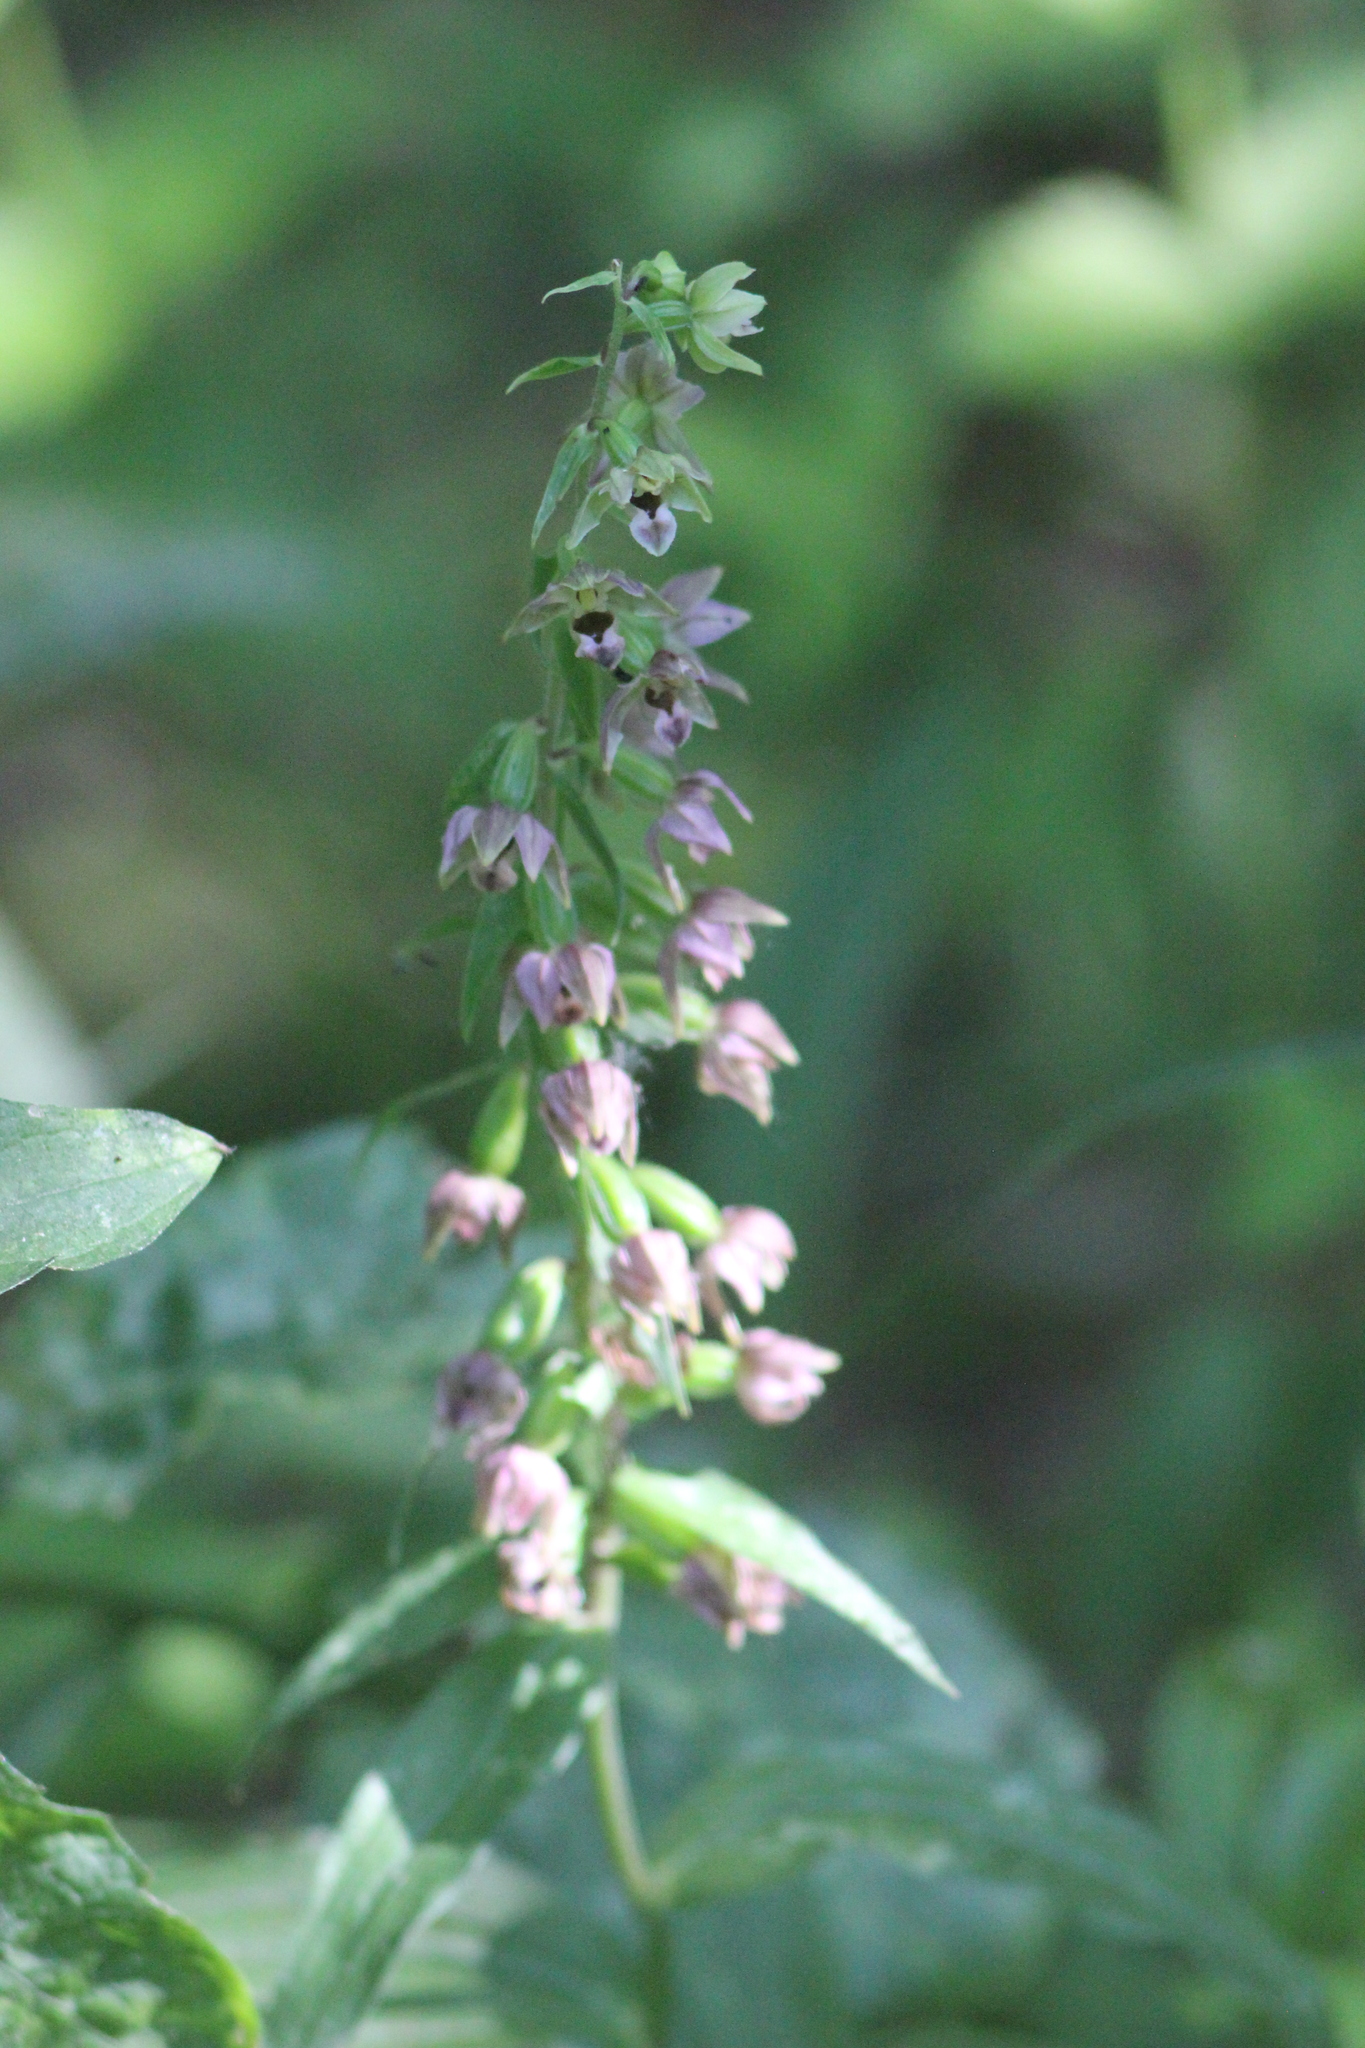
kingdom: Plantae
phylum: Tracheophyta
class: Liliopsida
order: Asparagales
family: Orchidaceae
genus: Epipactis
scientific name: Epipactis helleborine
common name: Broad-leaved helleborine
